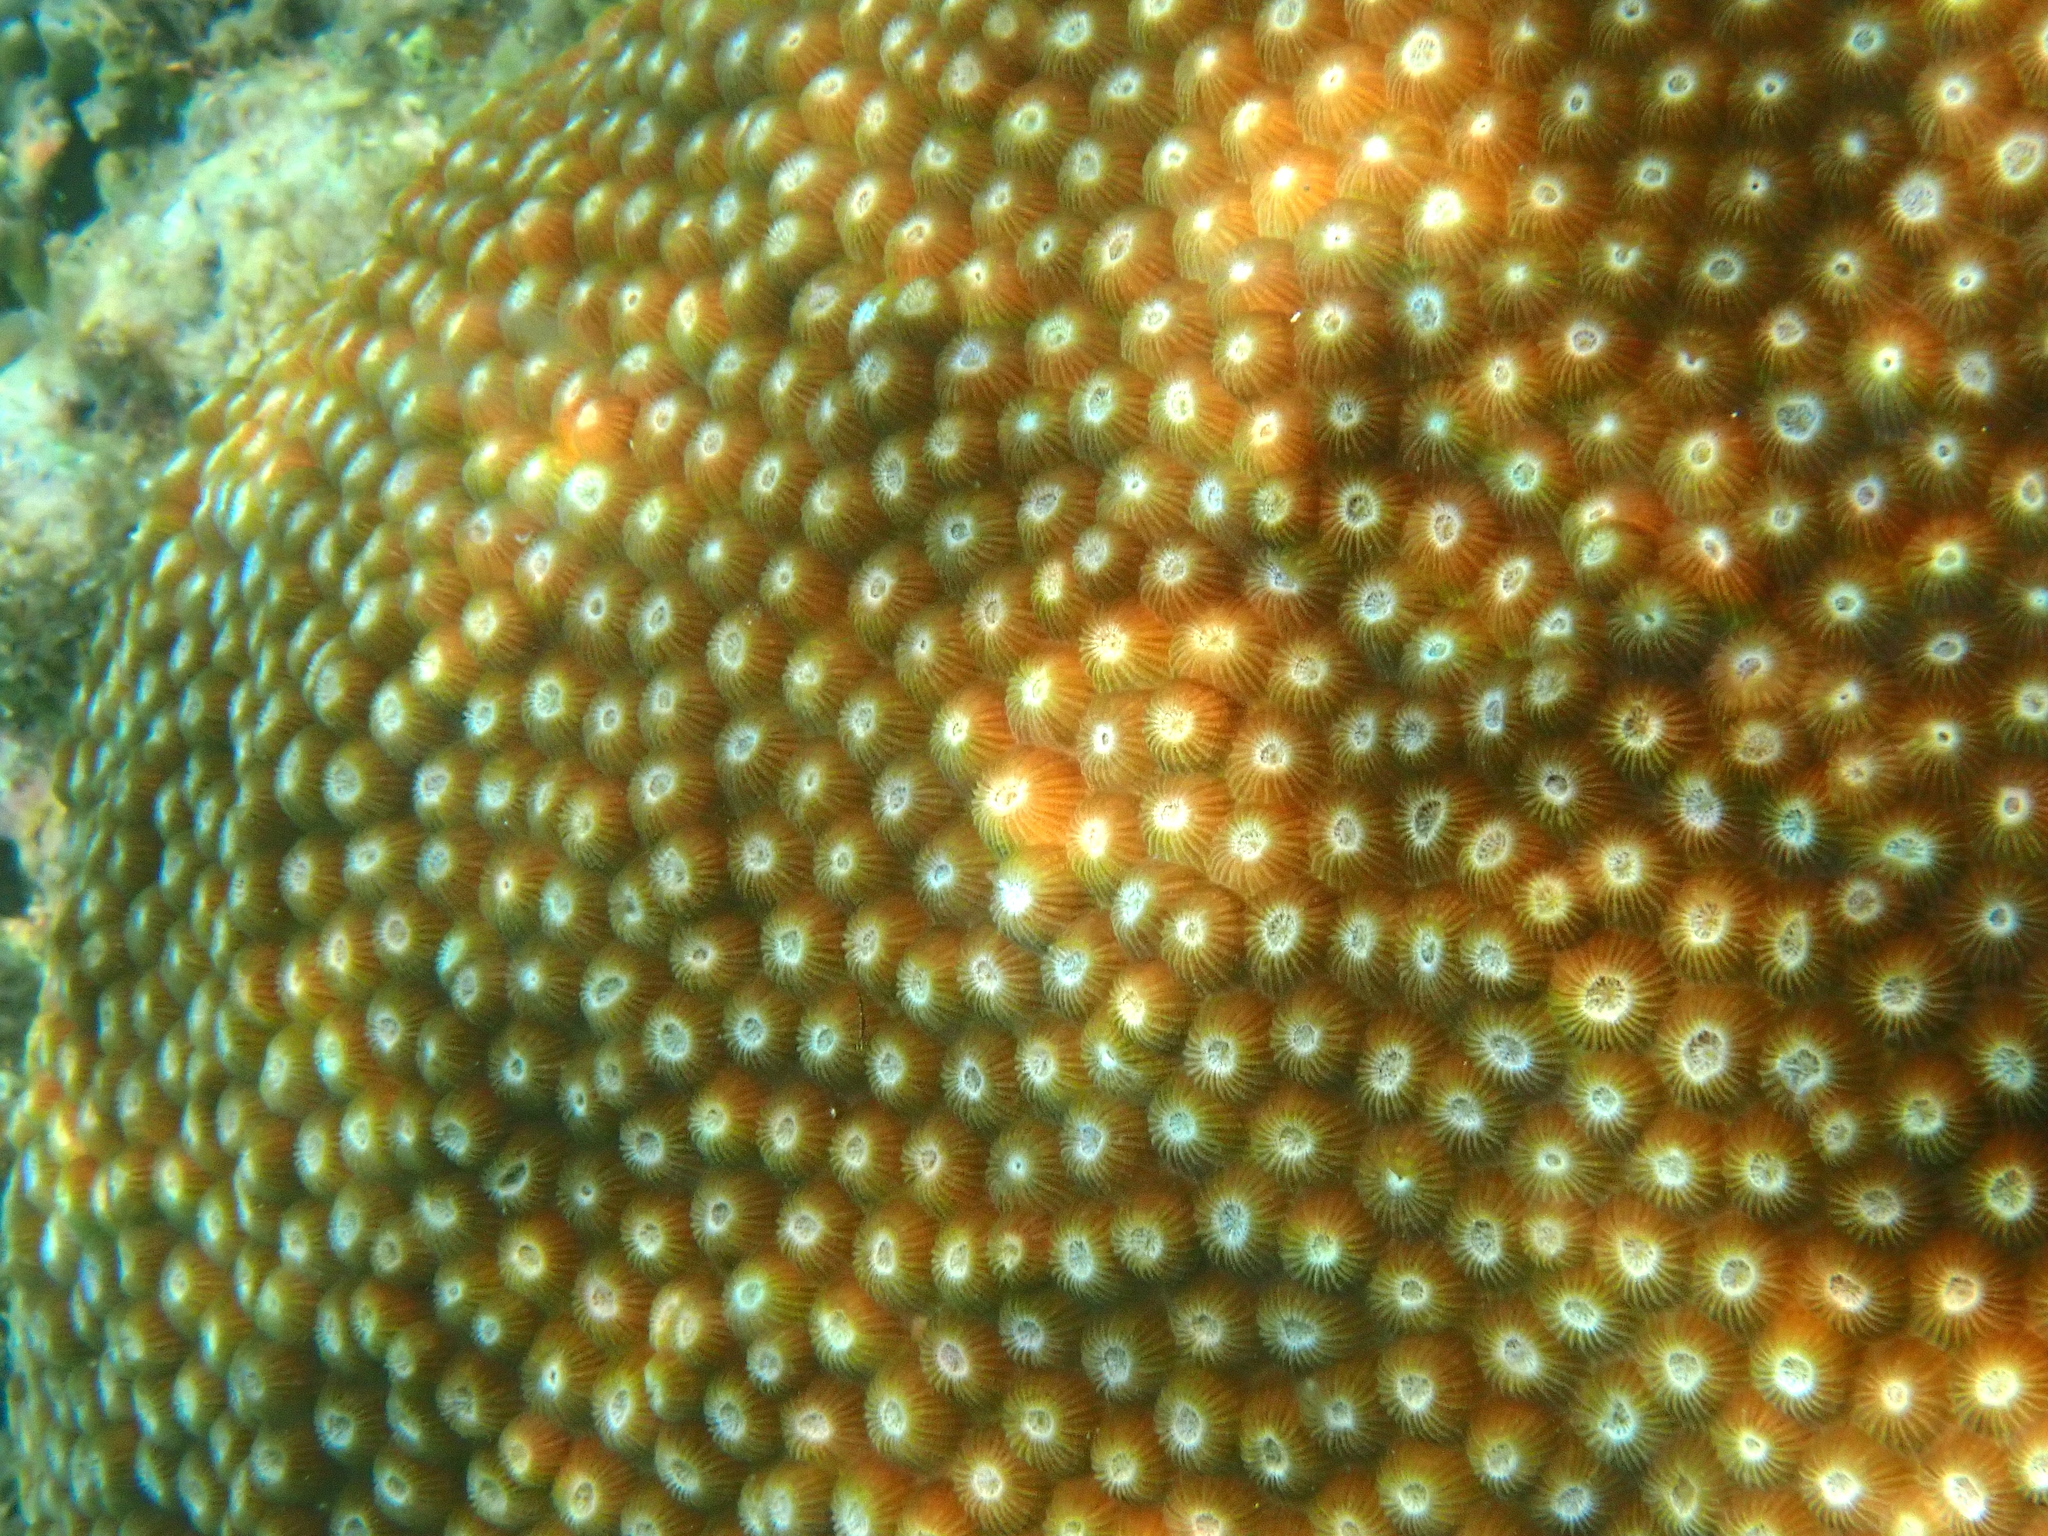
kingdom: Animalia
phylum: Cnidaria
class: Anthozoa
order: Scleractinia
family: Diploastraeidae
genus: Diploastrea
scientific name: Diploastrea heliopora
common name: Double-star coral
